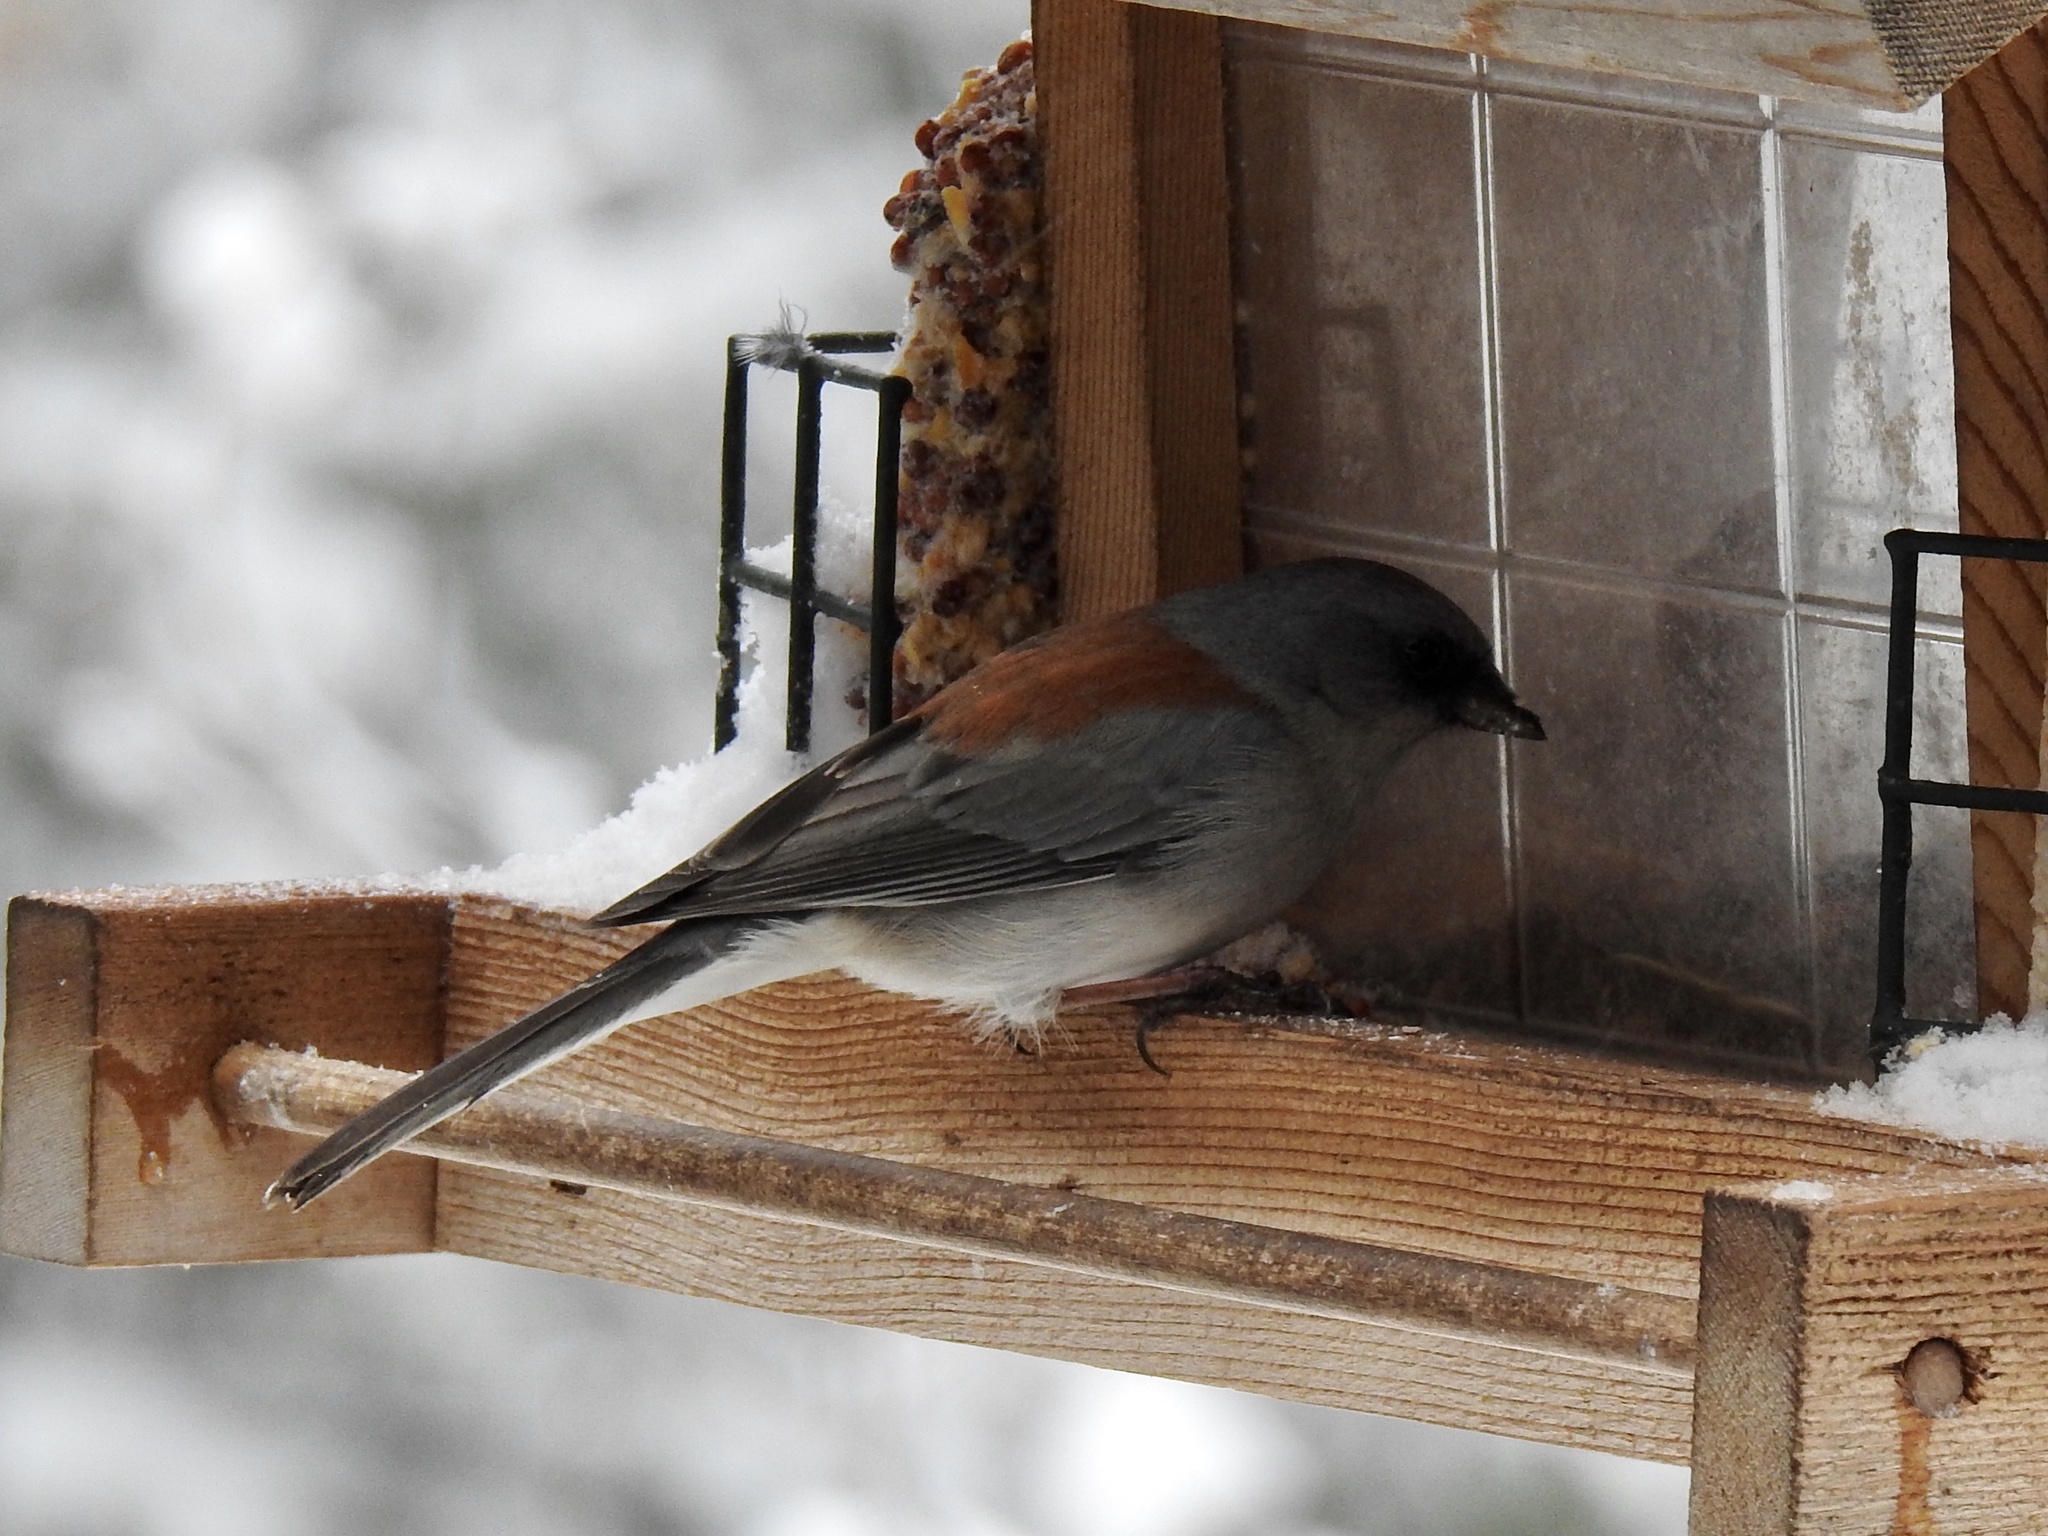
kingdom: Animalia
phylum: Chordata
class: Aves
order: Passeriformes
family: Passerellidae
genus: Junco
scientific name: Junco hyemalis
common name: Dark-eyed junco
